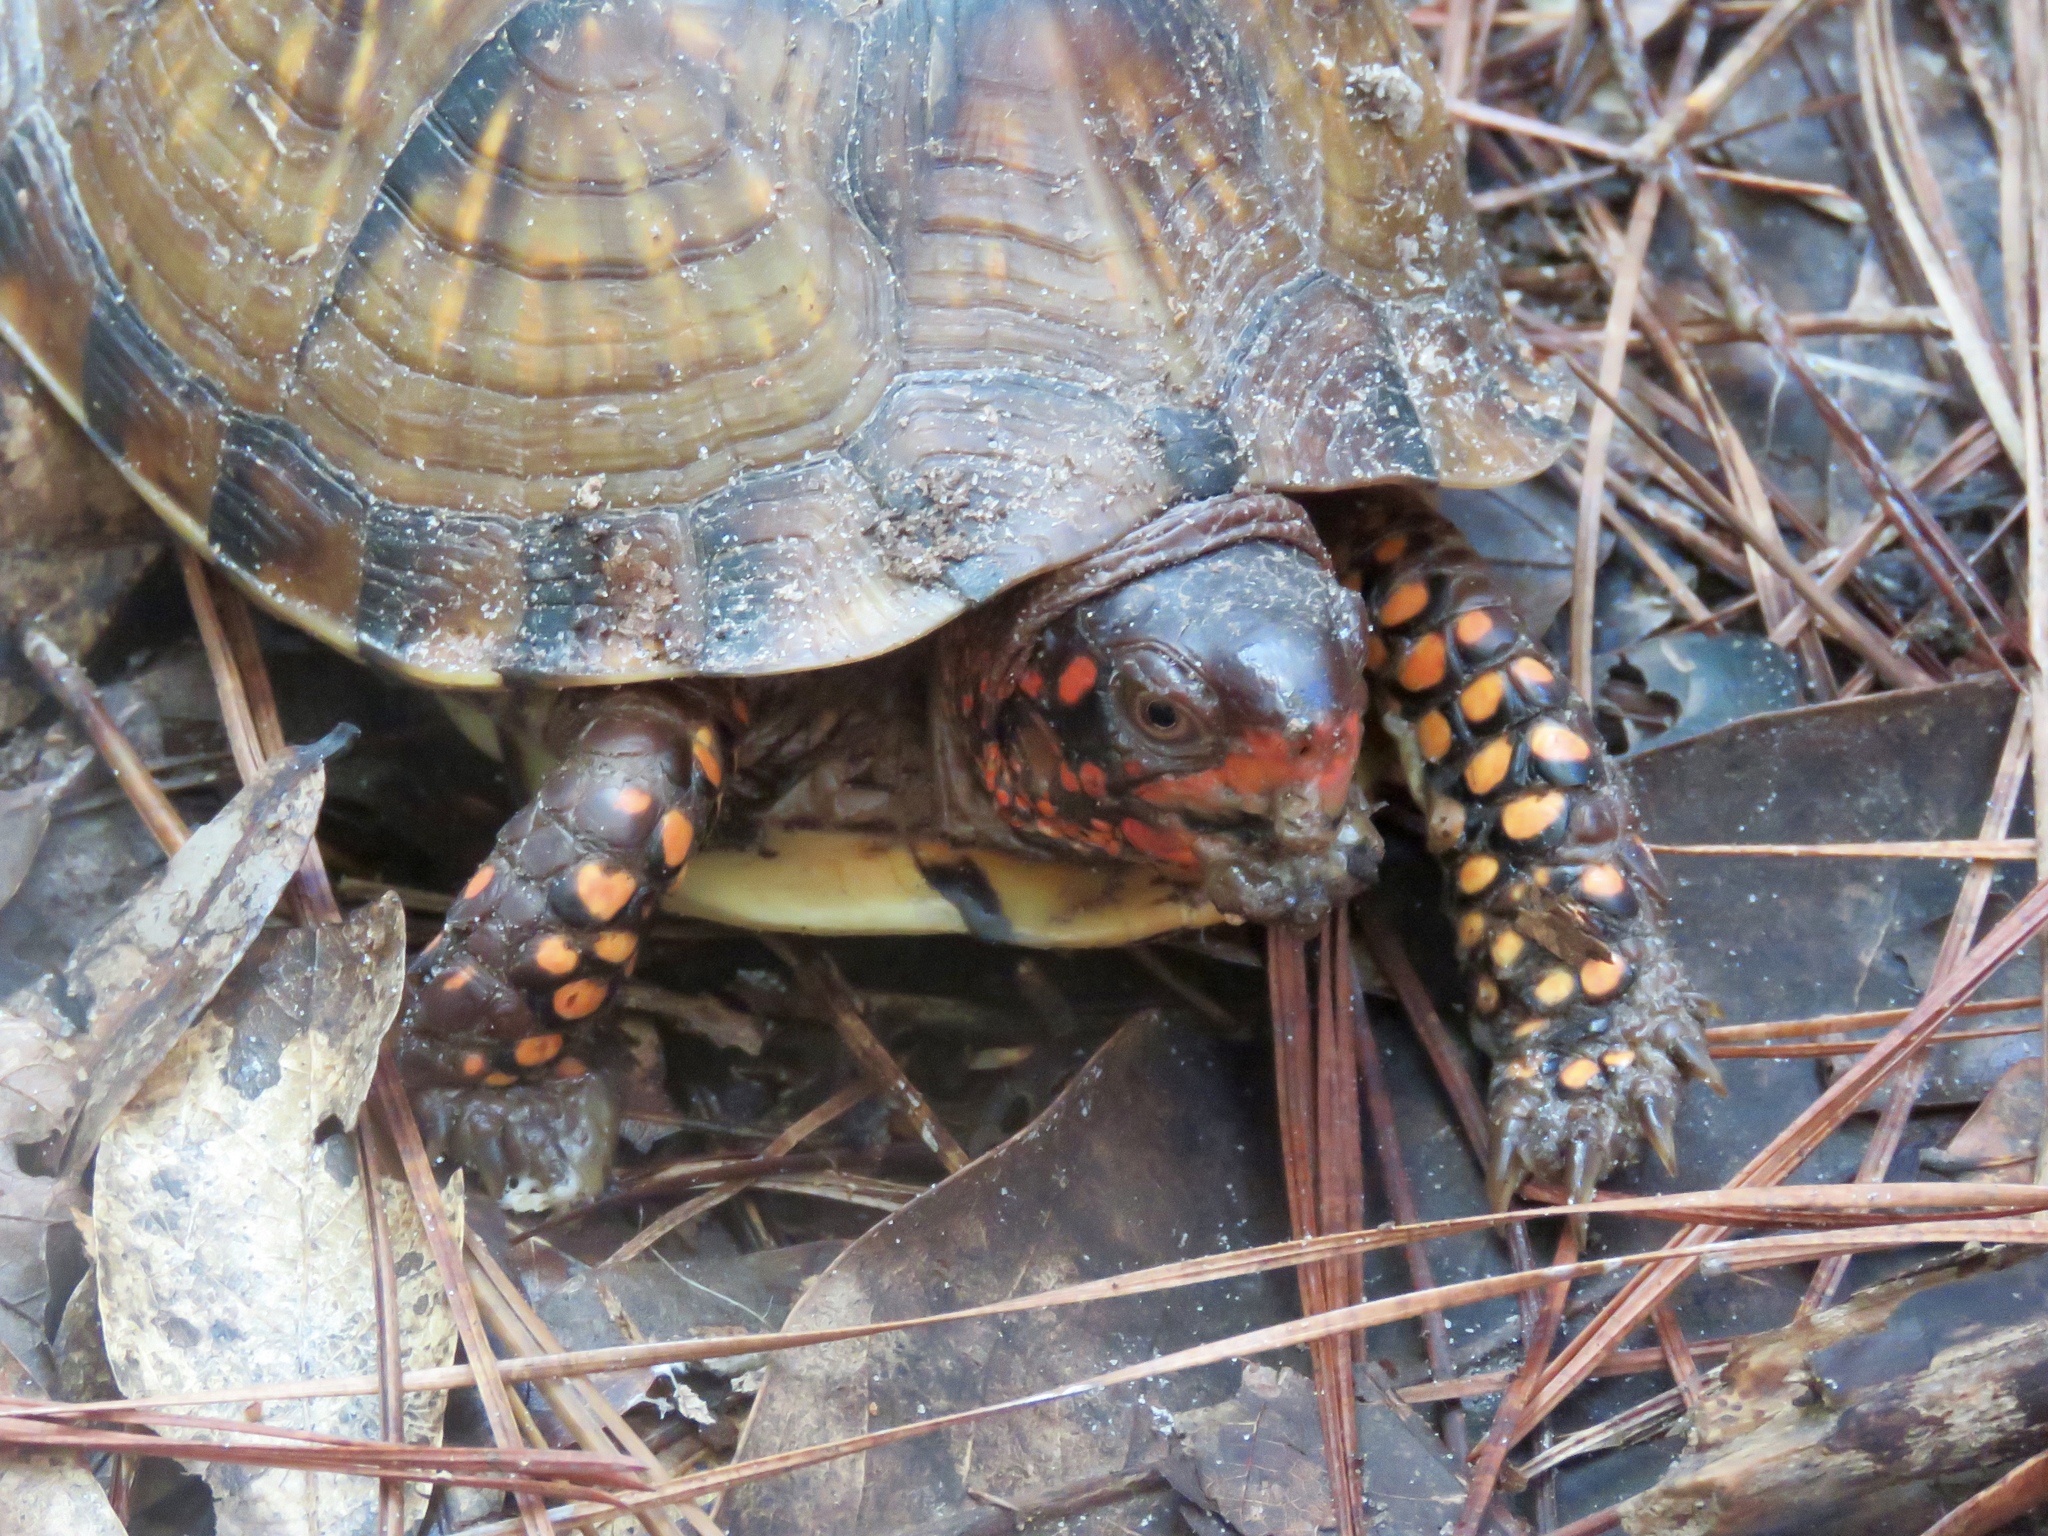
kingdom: Animalia
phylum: Chordata
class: Testudines
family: Emydidae
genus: Terrapene
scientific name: Terrapene carolina
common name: Common box turtle
